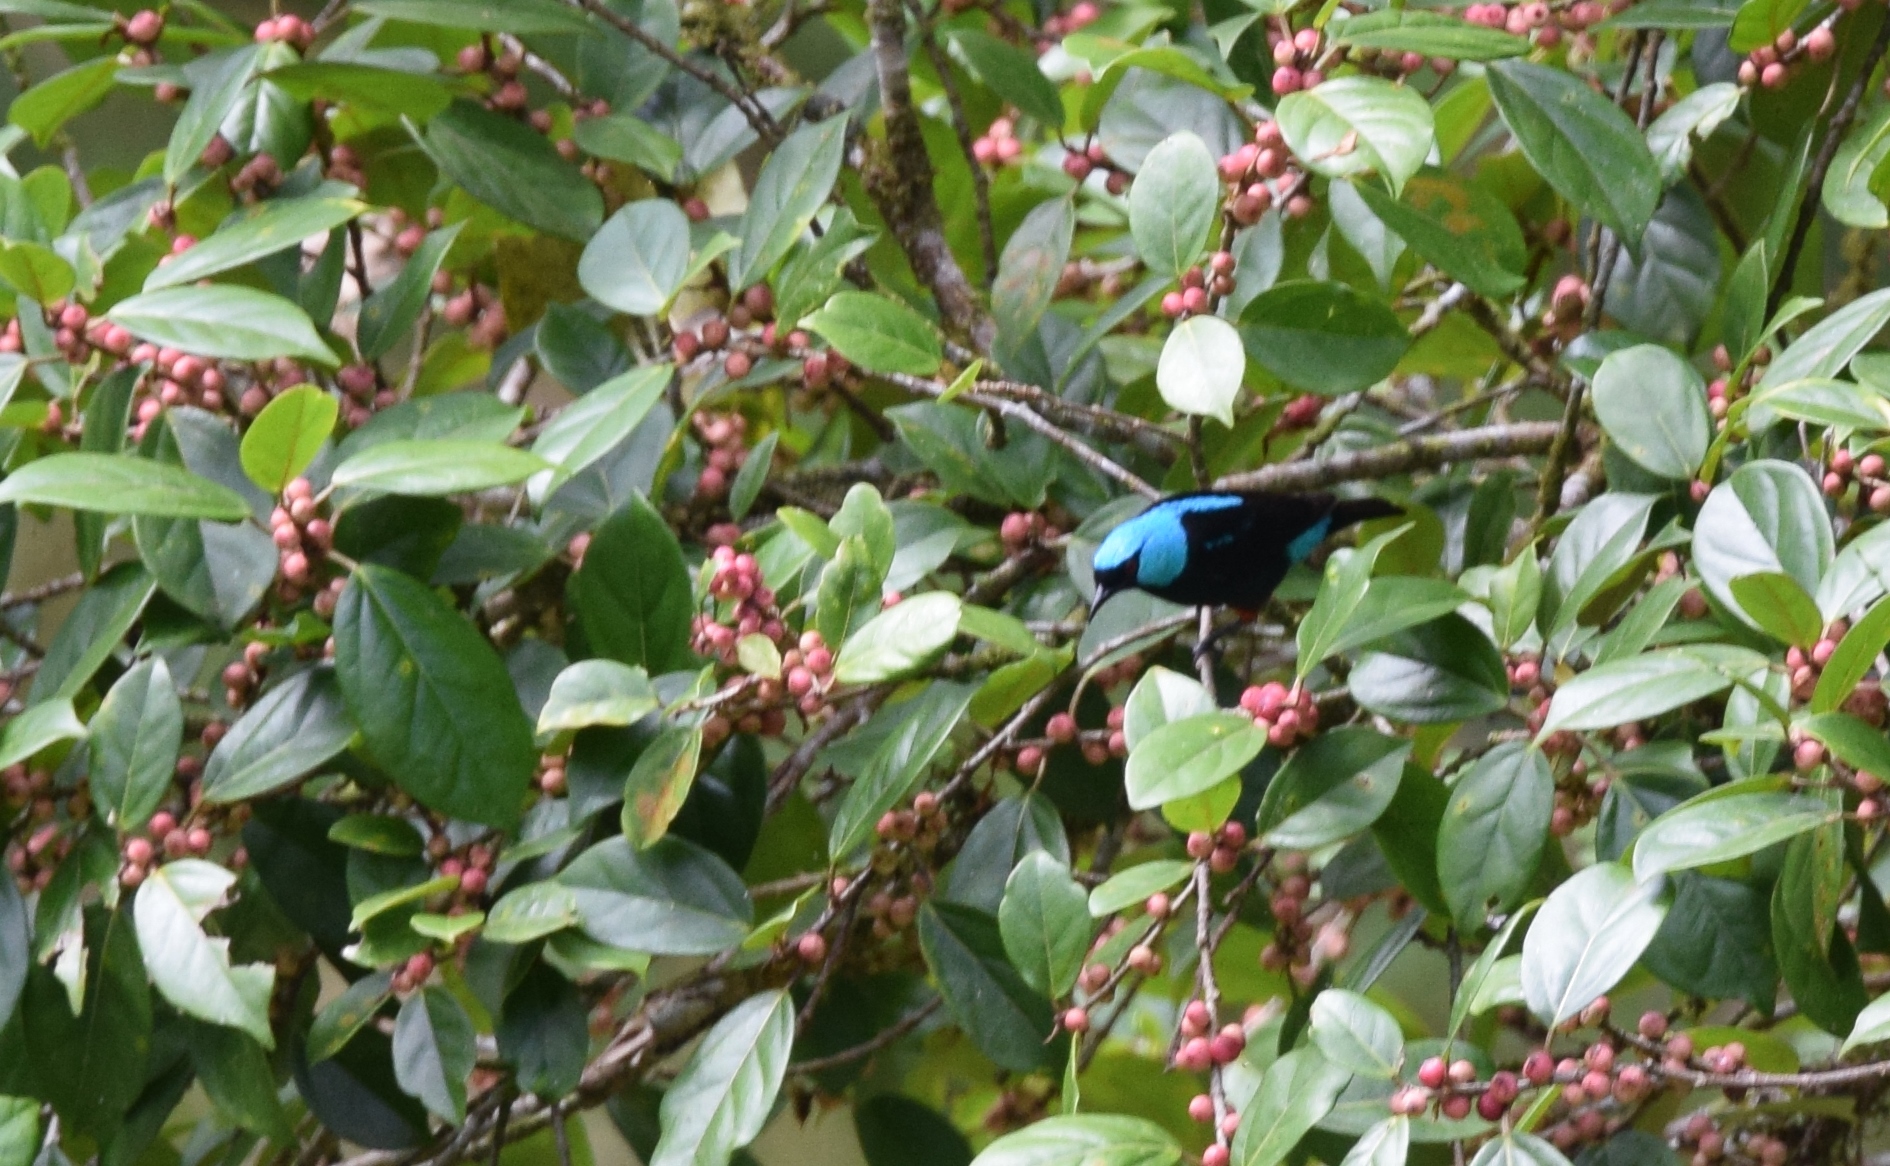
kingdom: Animalia
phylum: Chordata
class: Aves
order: Passeriformes
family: Thraupidae
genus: Dacnis
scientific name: Dacnis venusta
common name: Scarlet-thighed dacnis
